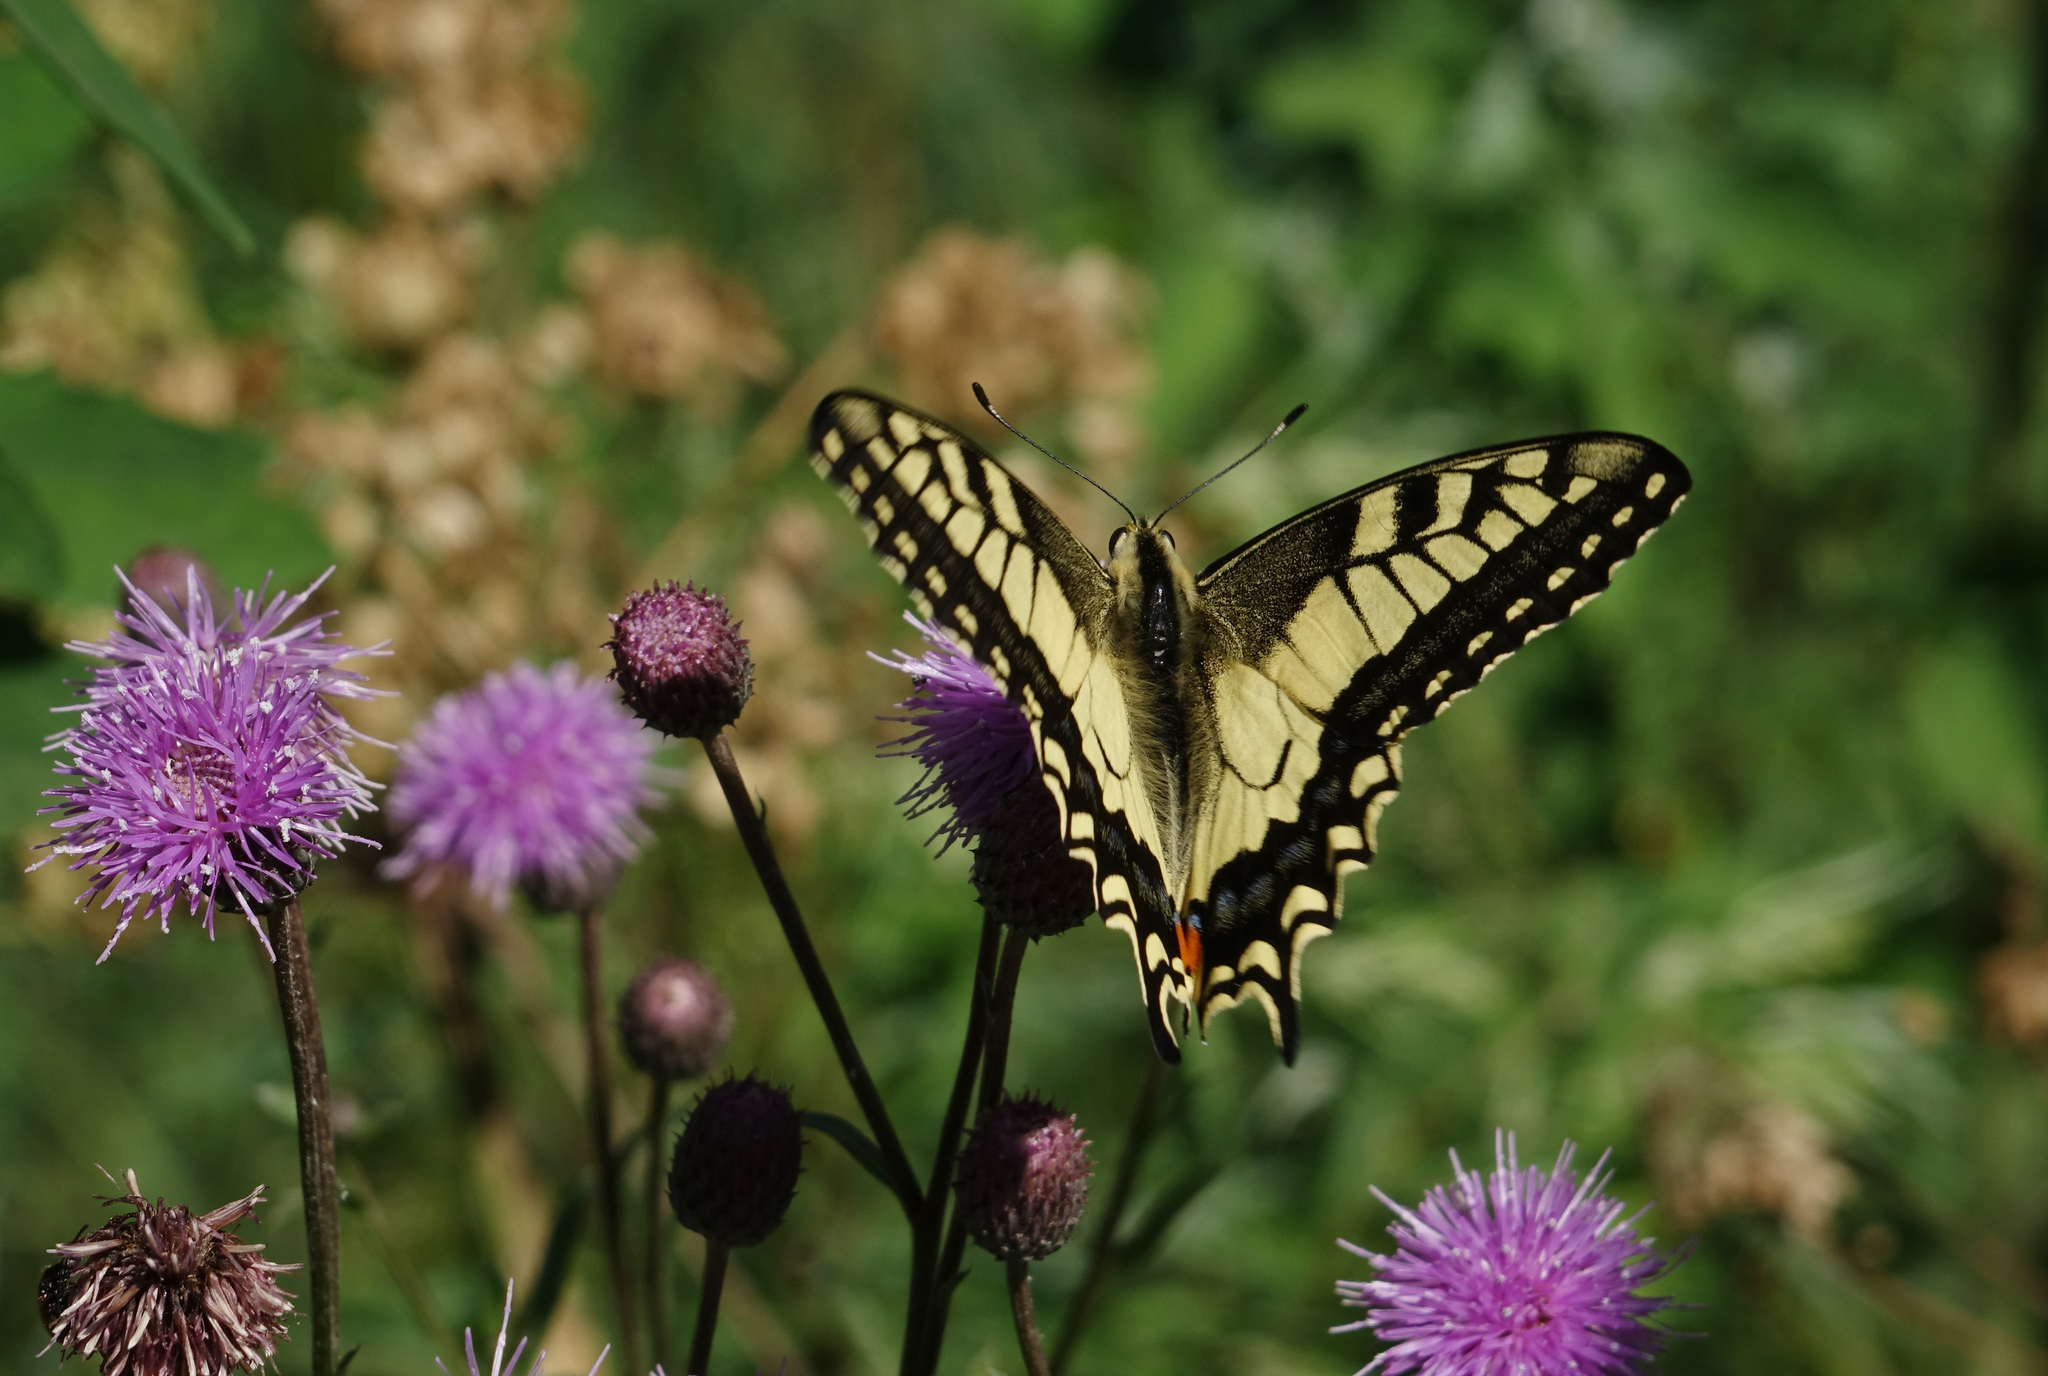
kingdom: Animalia
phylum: Arthropoda
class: Insecta
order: Lepidoptera
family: Papilionidae
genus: Papilio
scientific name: Papilio machaon
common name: Swallowtail
